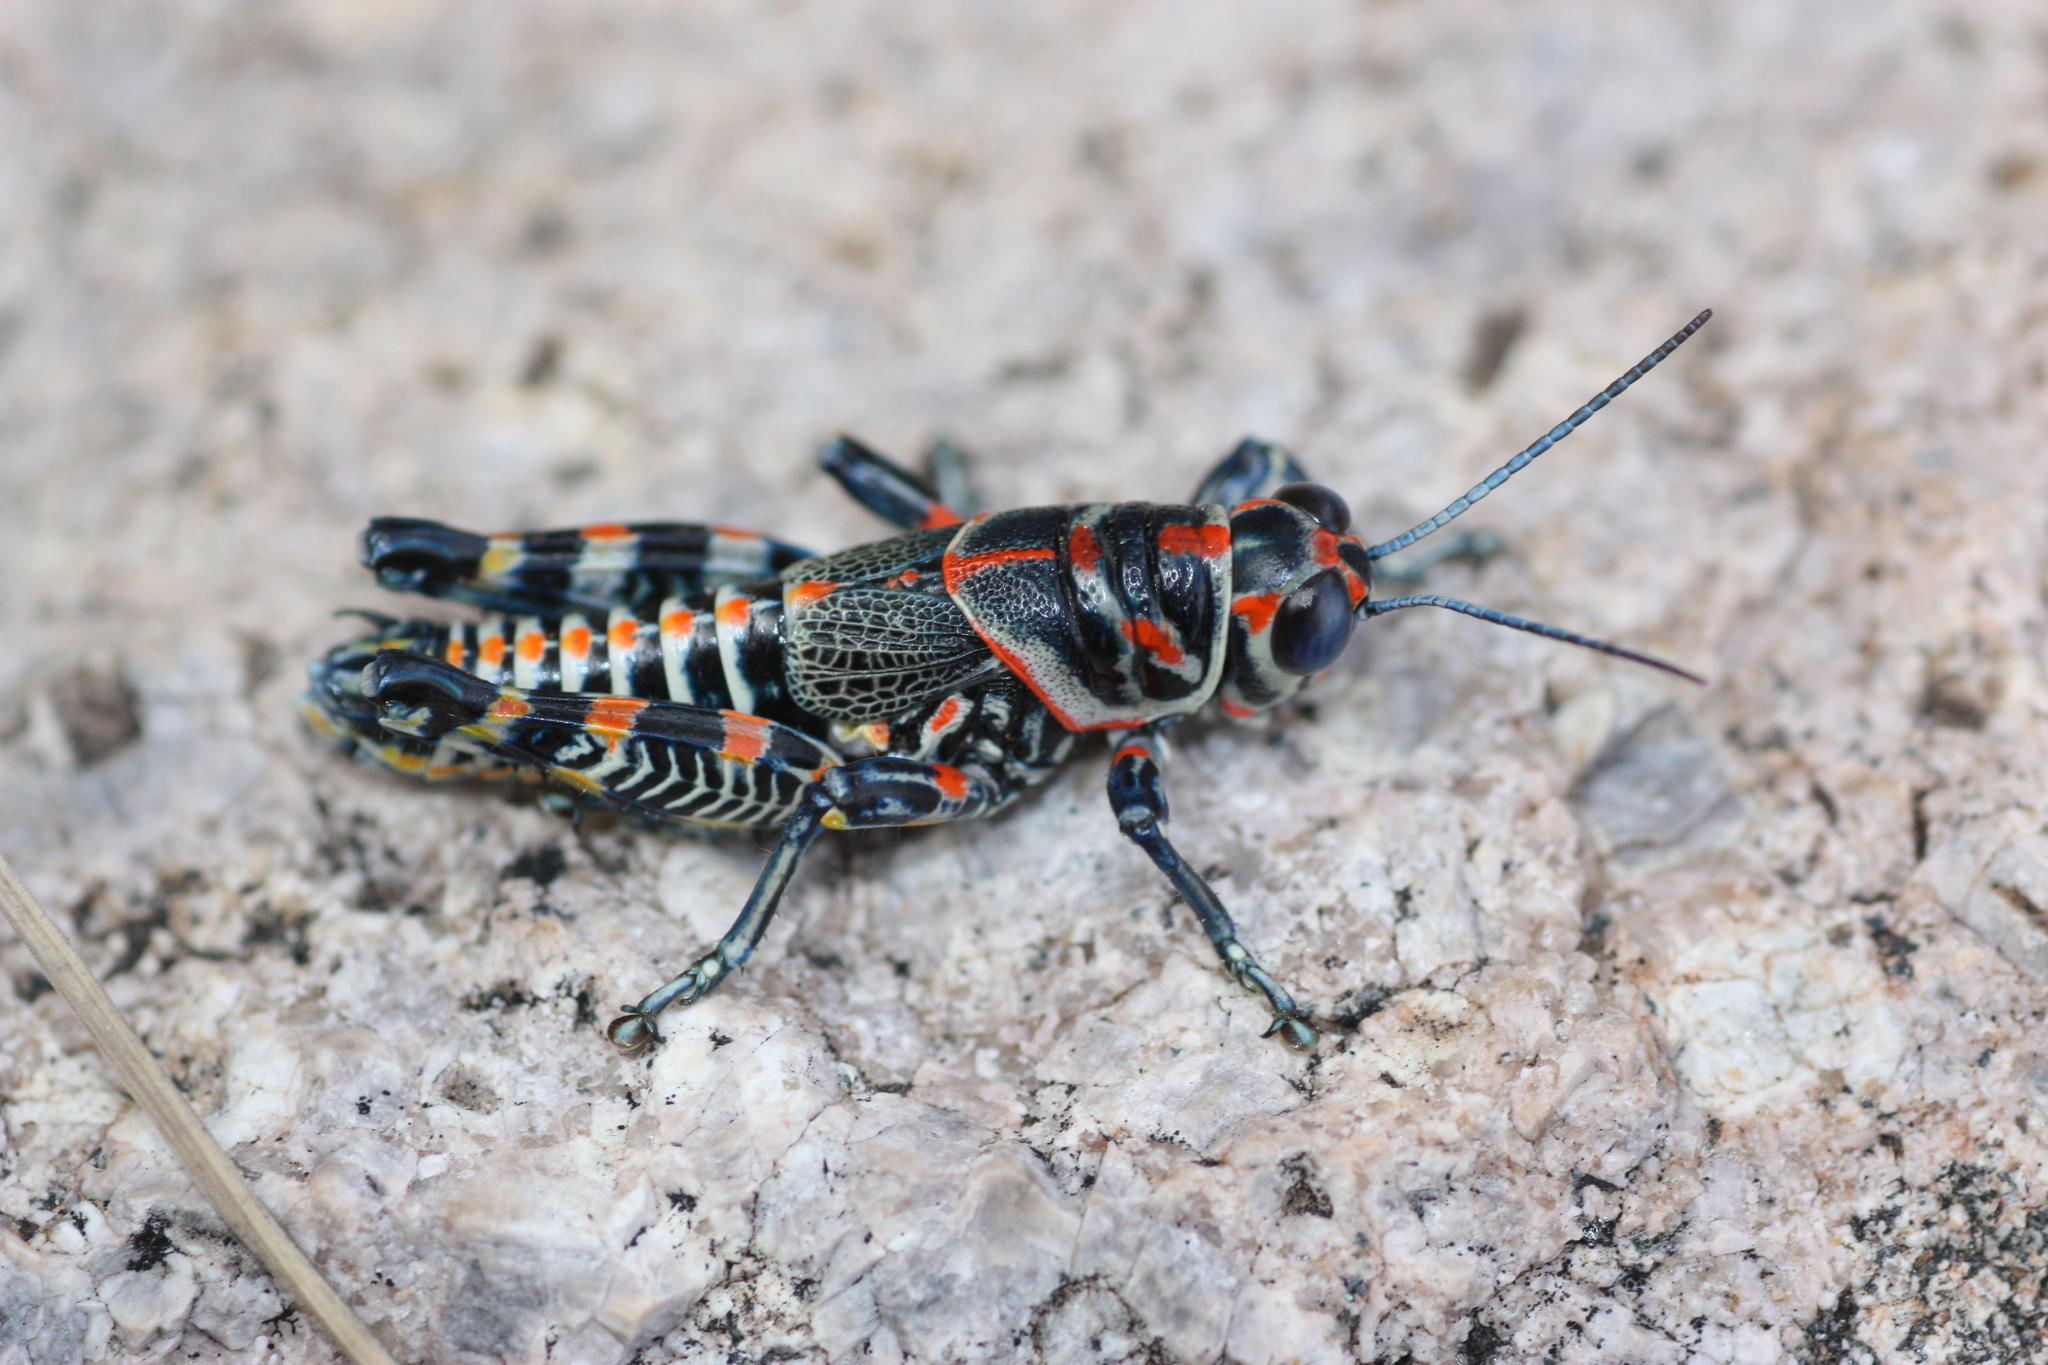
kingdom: Animalia
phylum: Arthropoda
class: Insecta
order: Orthoptera
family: Acrididae
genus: Dactylotum
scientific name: Dactylotum bicolor
